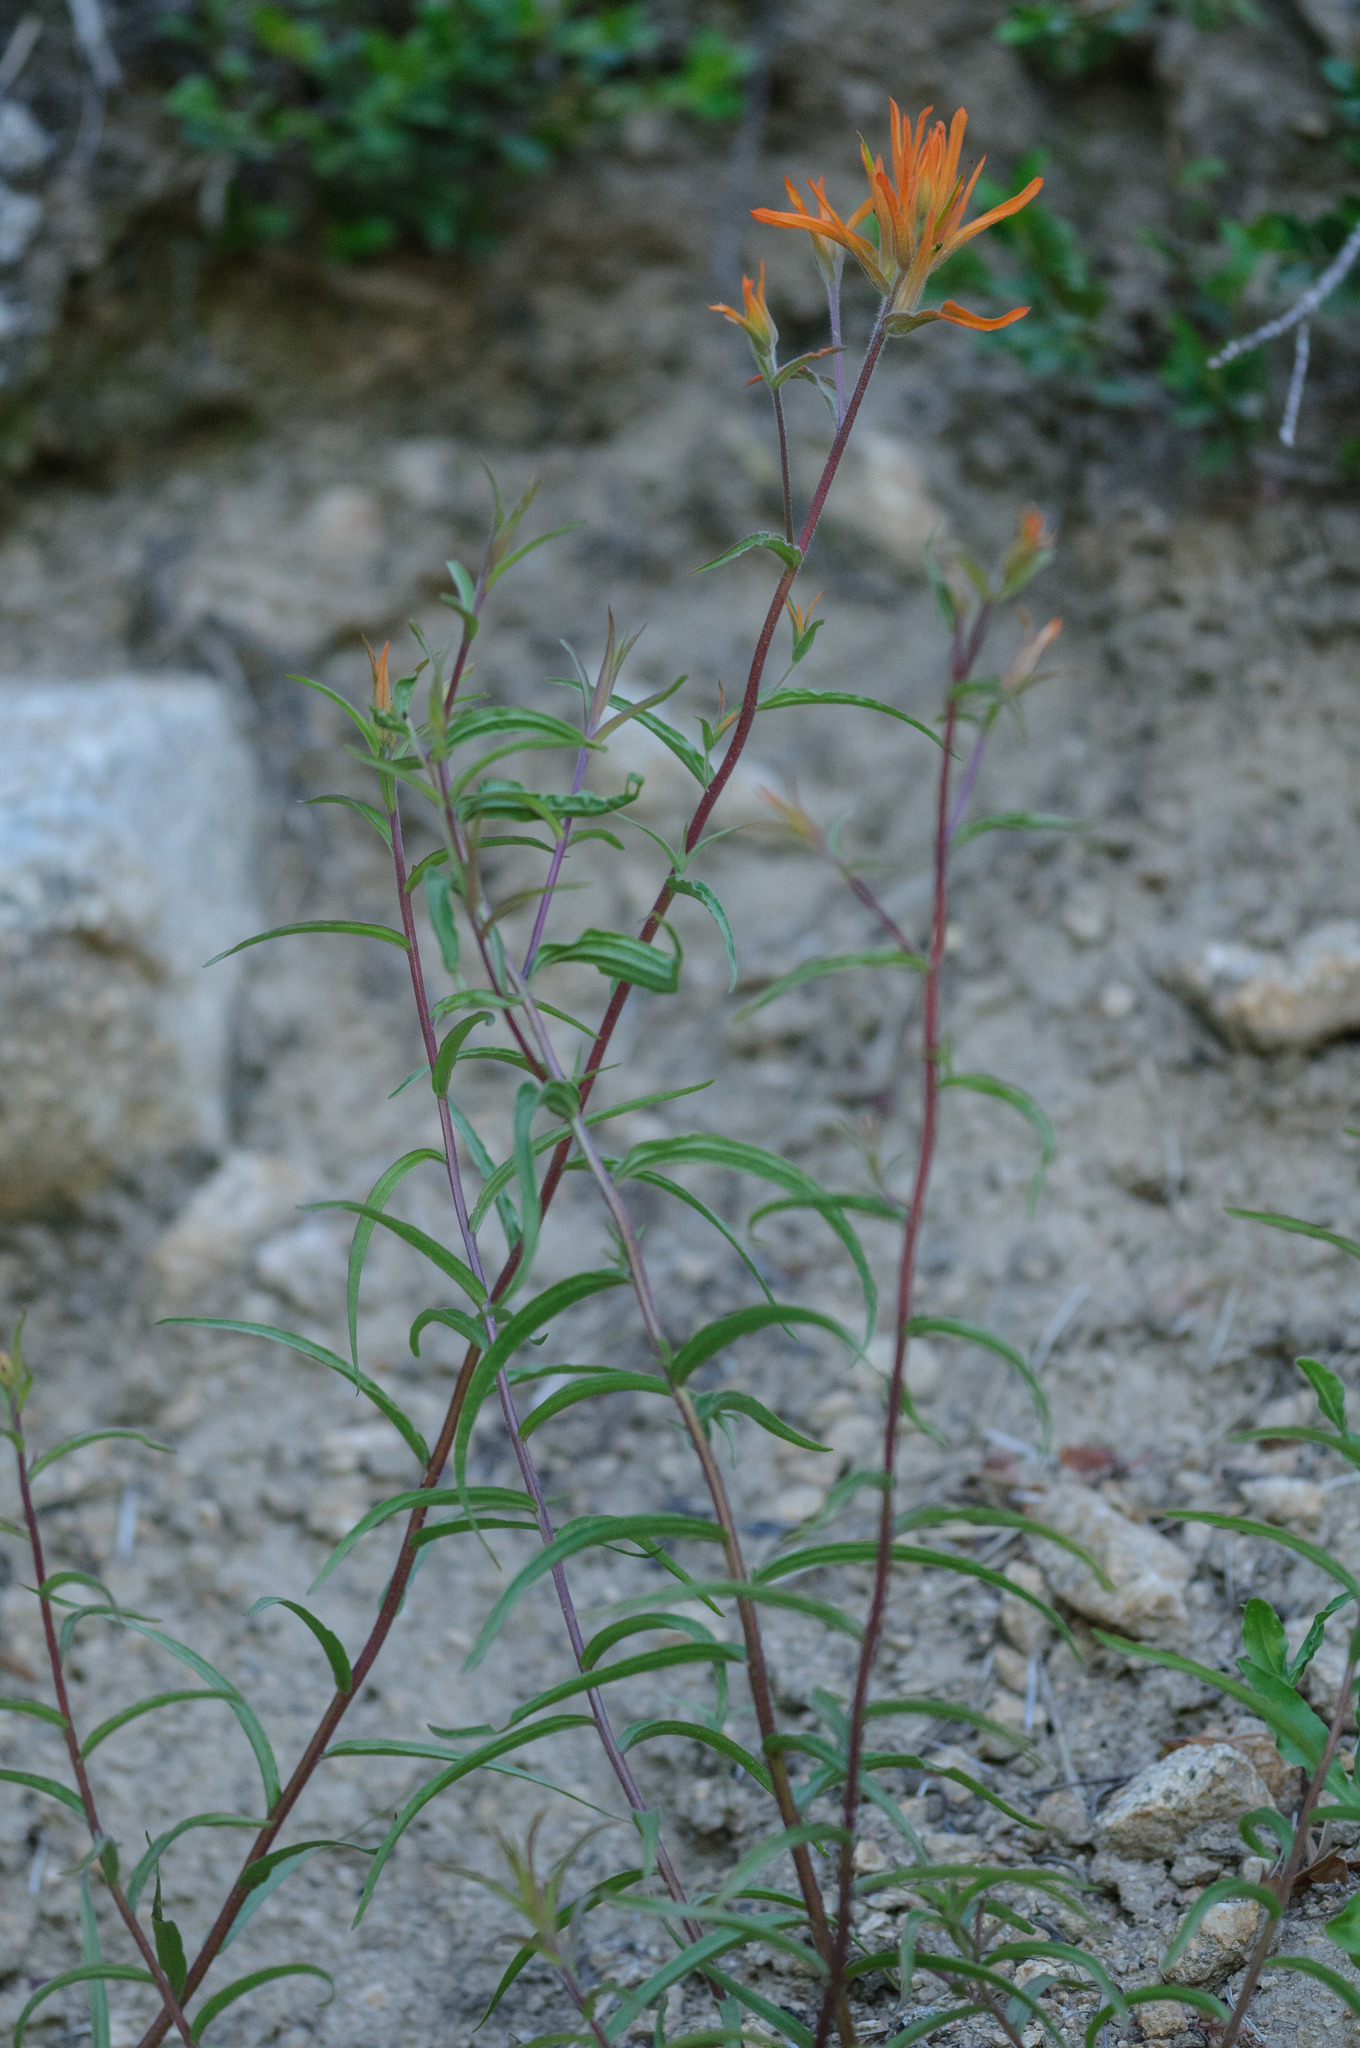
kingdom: Plantae
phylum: Tracheophyta
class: Magnoliopsida
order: Lamiales
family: Orobanchaceae
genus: Castilleja
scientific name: Castilleja linariifolia
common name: Wyoming paintbrush
